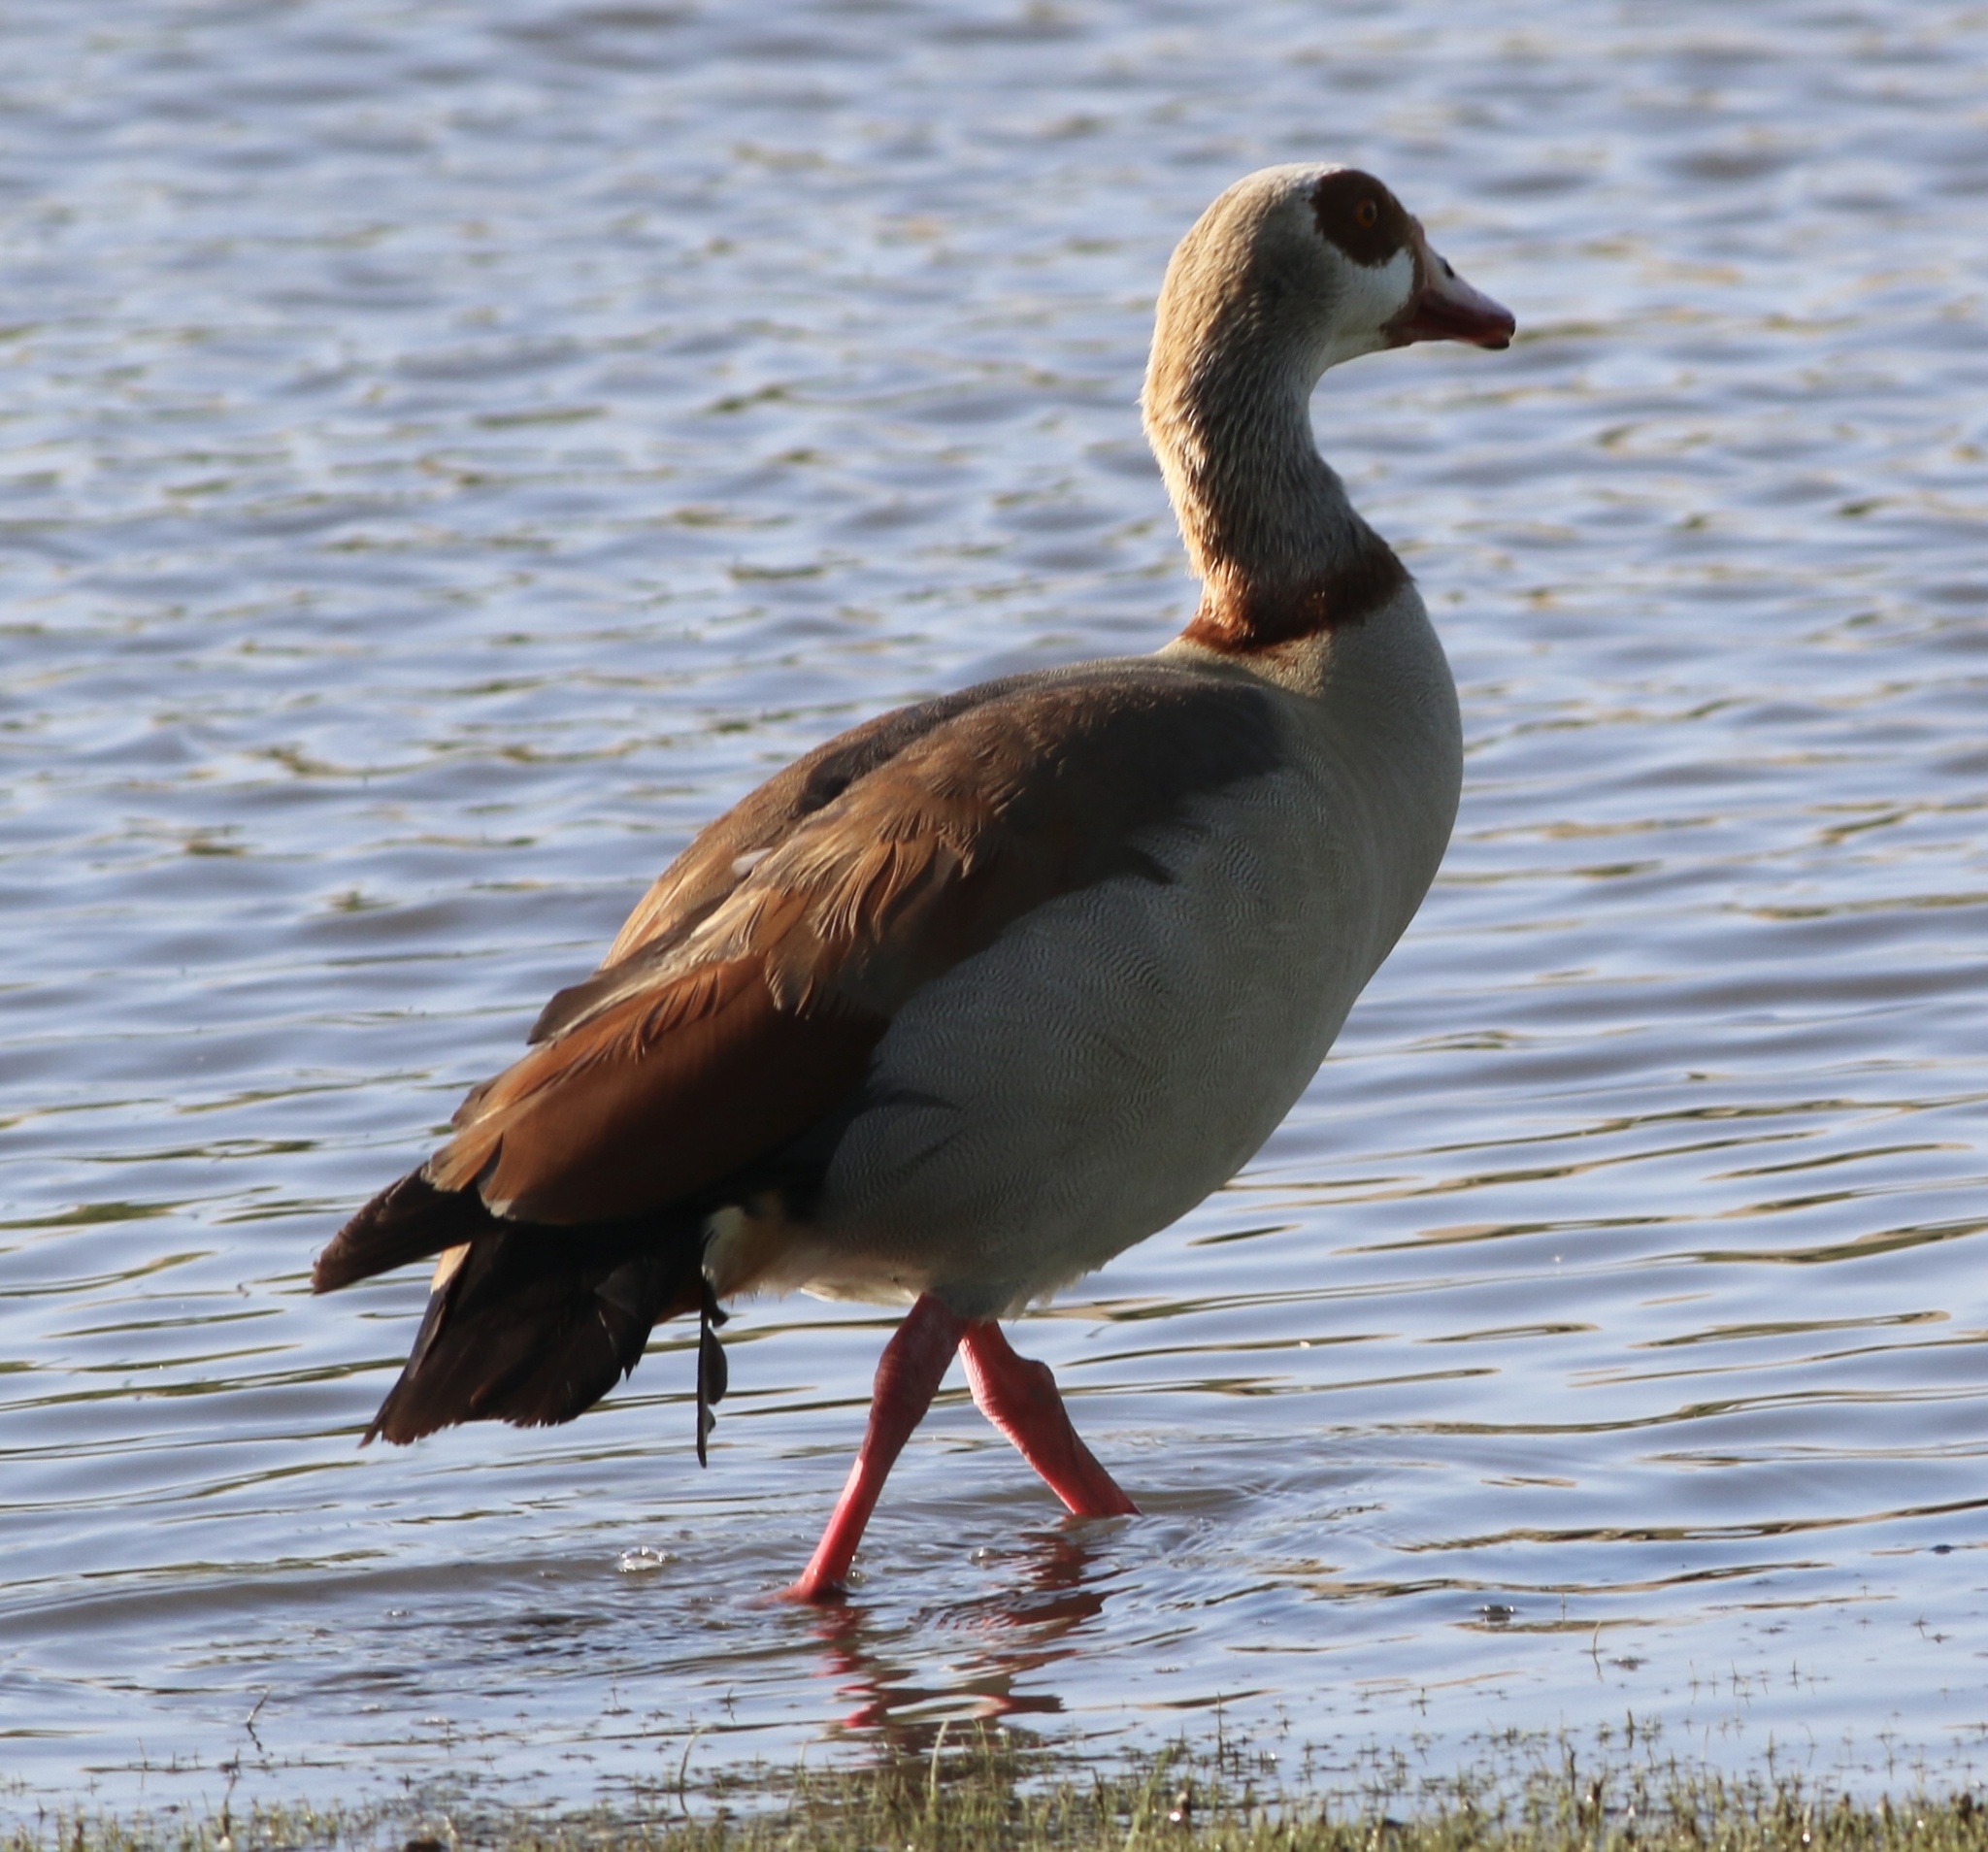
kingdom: Animalia
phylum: Chordata
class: Aves
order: Anseriformes
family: Anatidae
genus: Alopochen
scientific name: Alopochen aegyptiaca
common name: Egyptian goose
